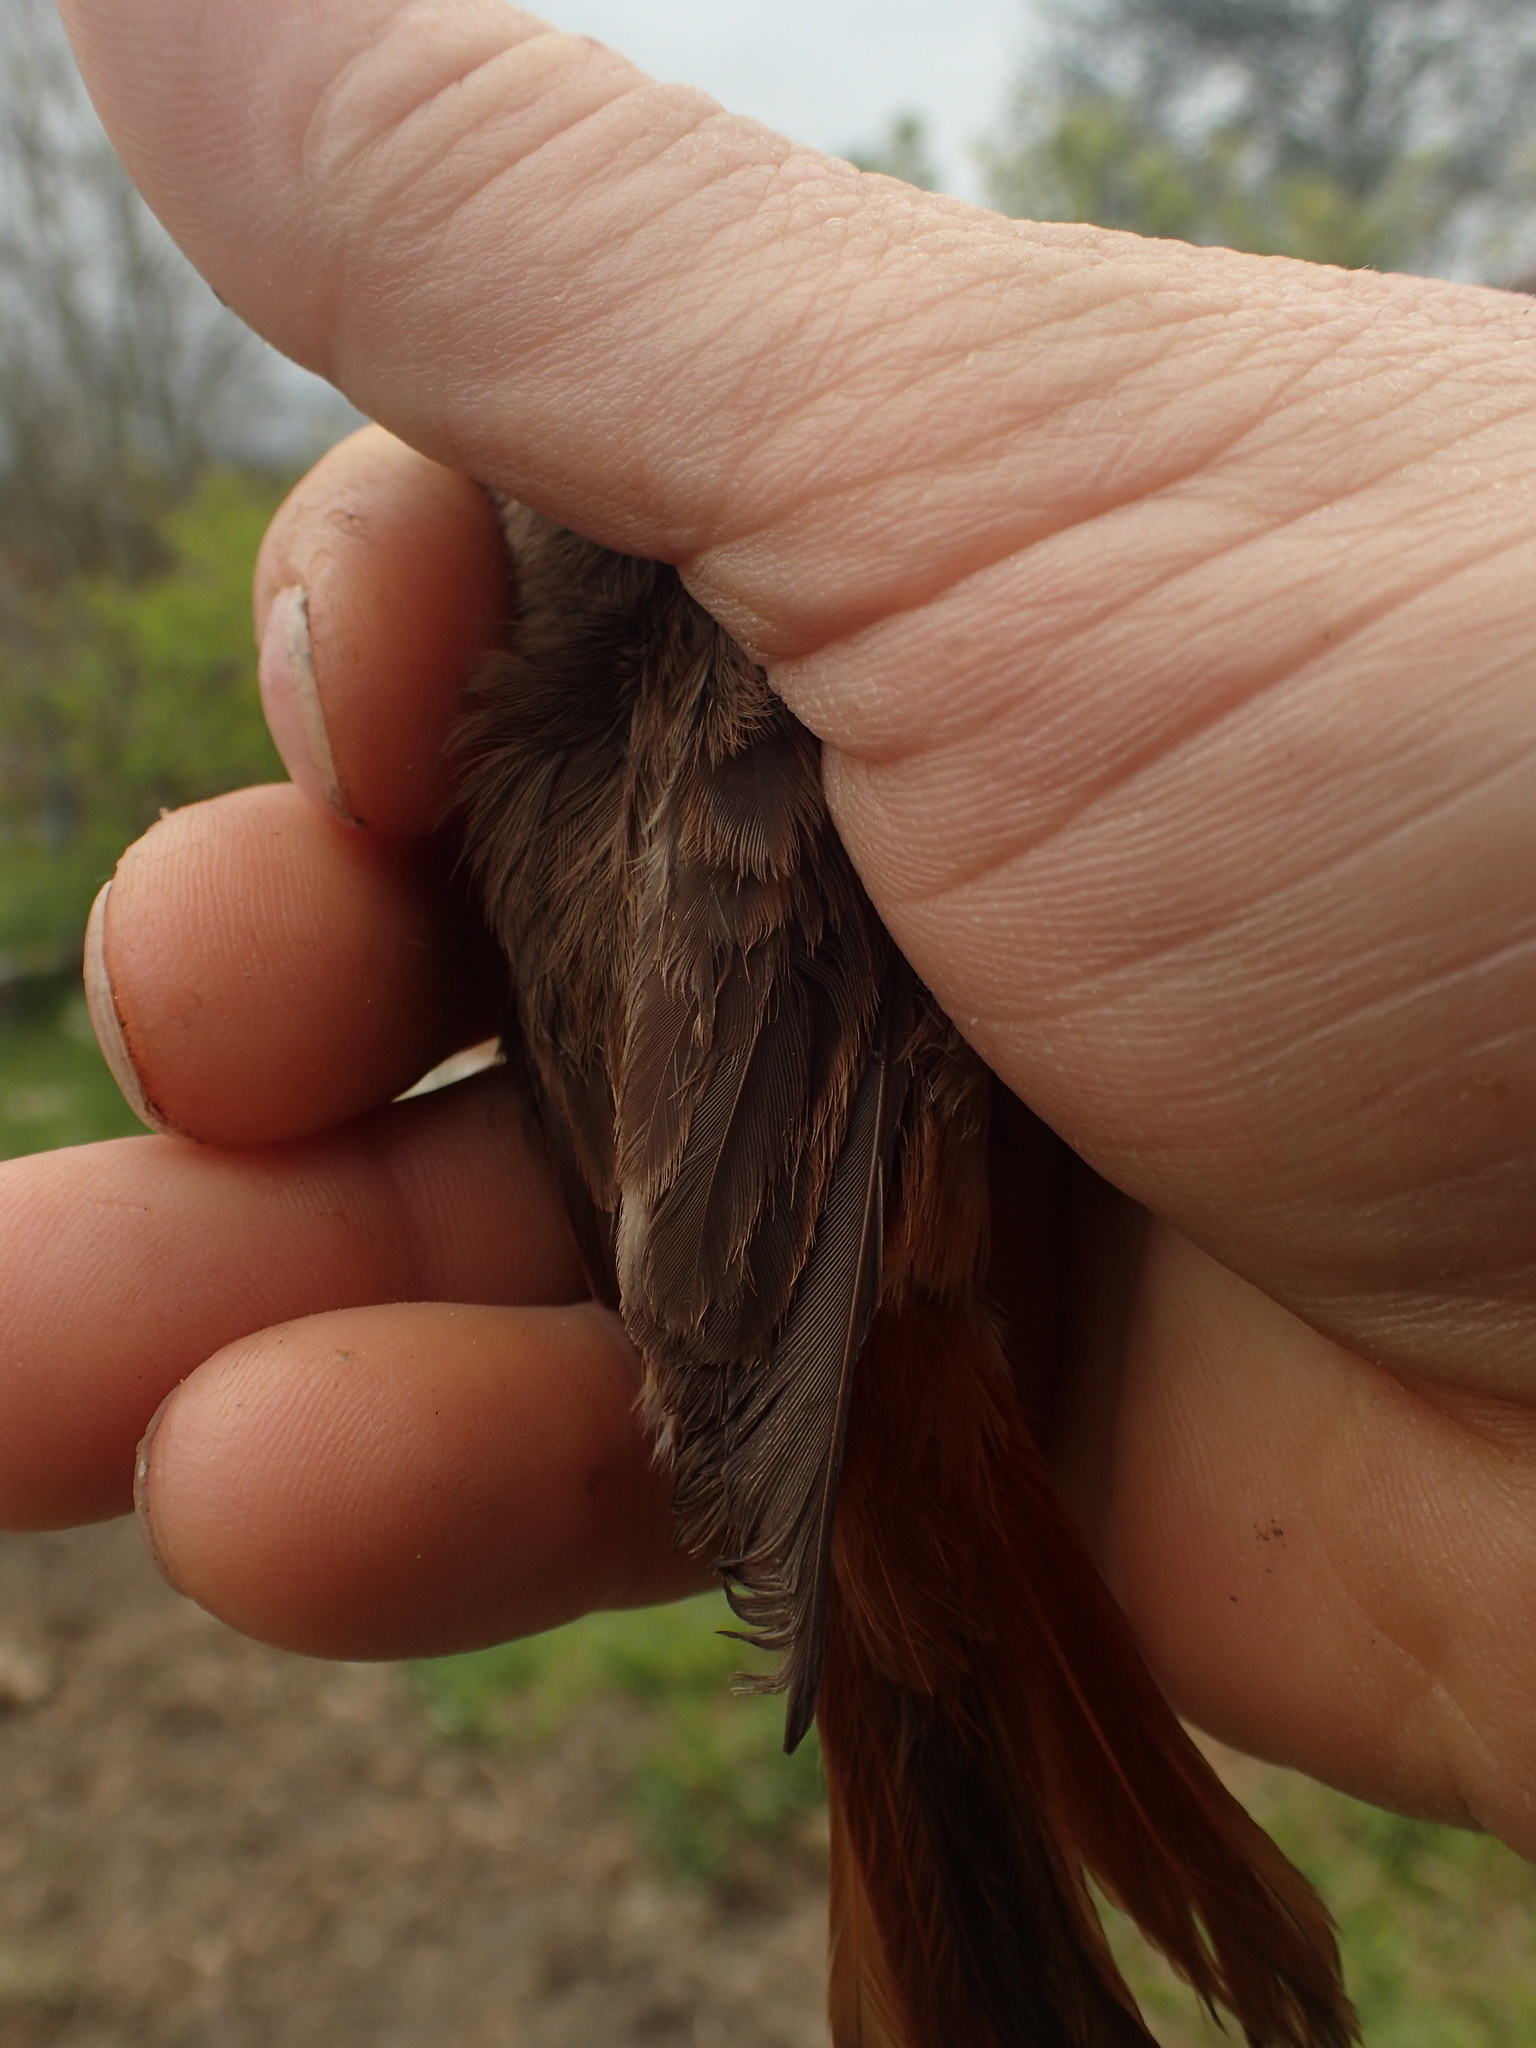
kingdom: Animalia
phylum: Chordata
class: Aves
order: Passeriformes
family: Muscicapidae
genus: Phoenicurus
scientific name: Phoenicurus phoenicurus
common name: Common redstart
